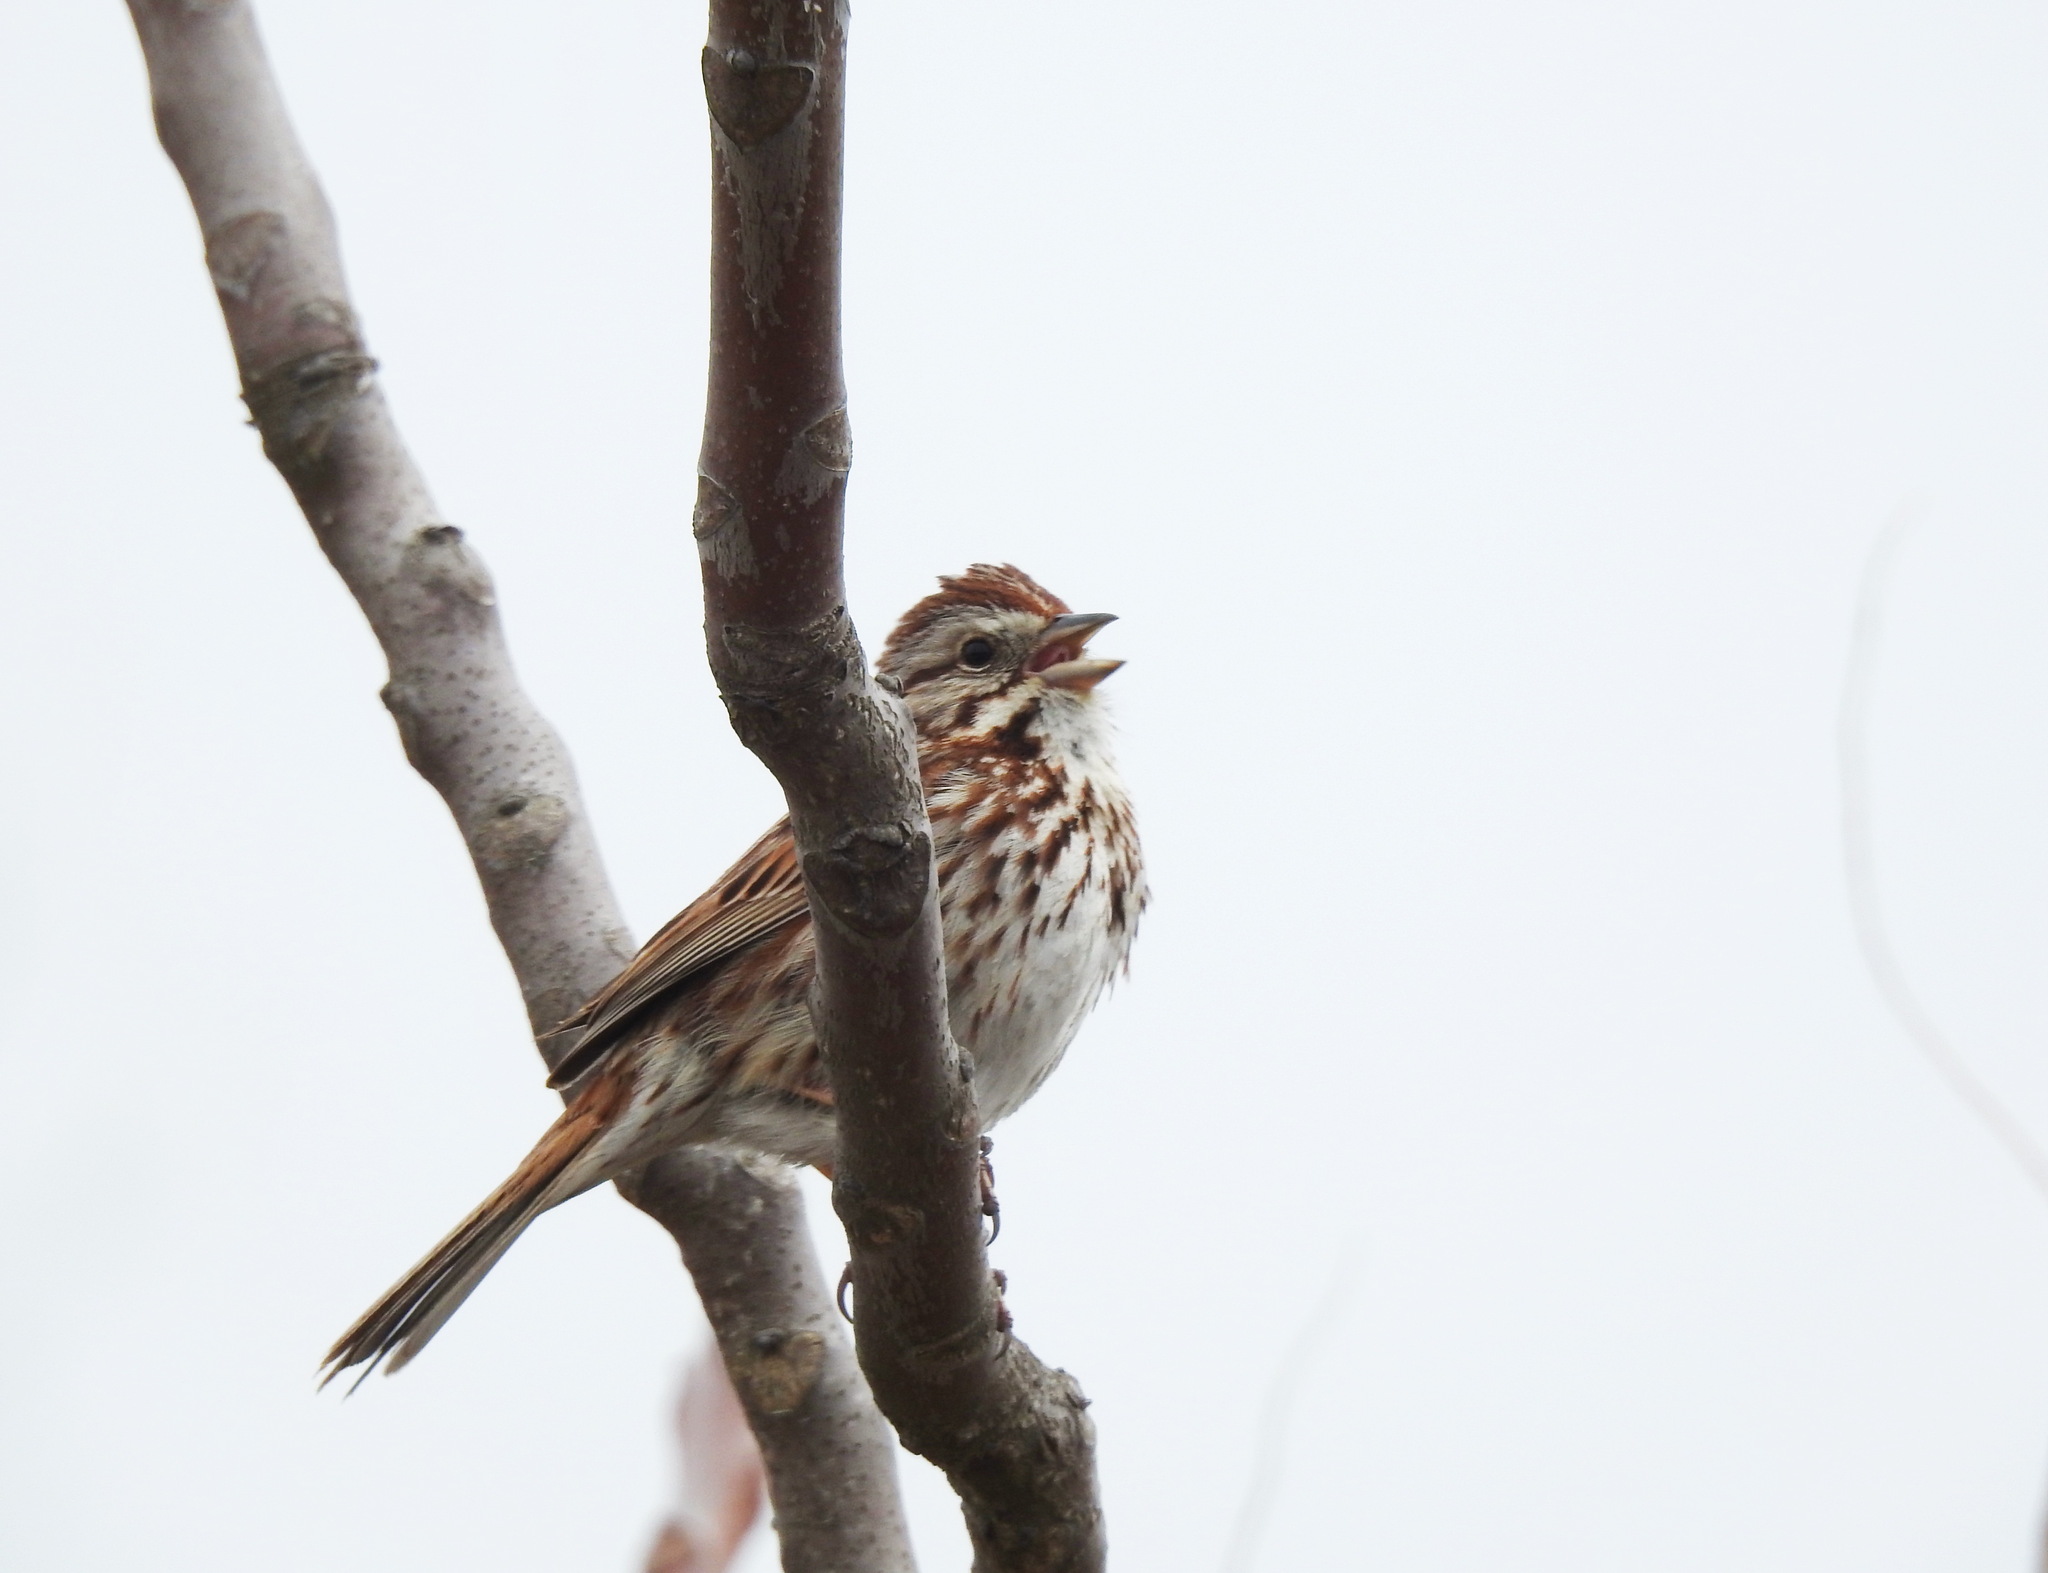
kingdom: Animalia
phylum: Chordata
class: Aves
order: Passeriformes
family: Passerellidae
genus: Melospiza
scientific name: Melospiza melodia
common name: Song sparrow
